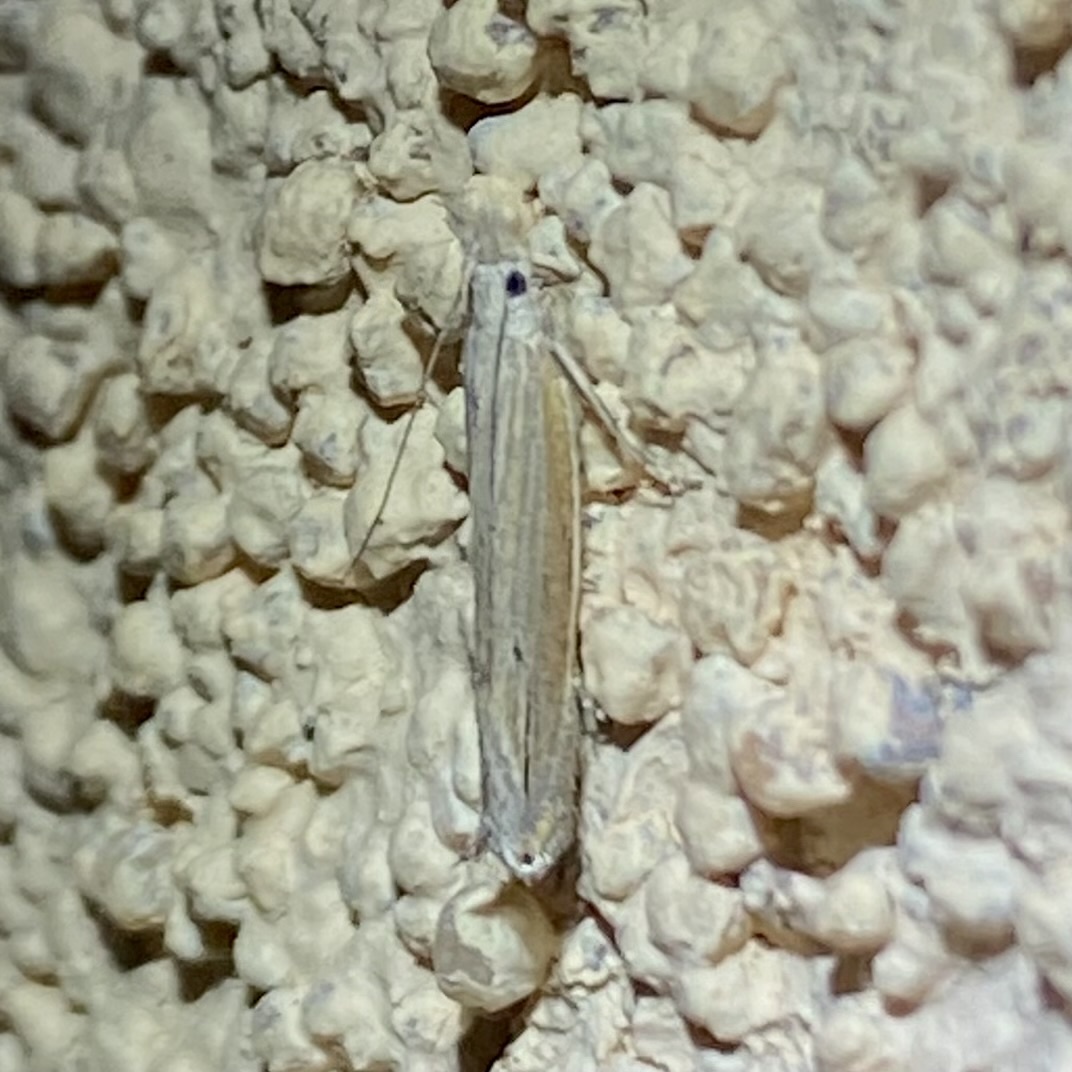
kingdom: Animalia
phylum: Arthropoda
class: Insecta
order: Lepidoptera
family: Gelechiidae
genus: Sophronia
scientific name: Sophronia primella
